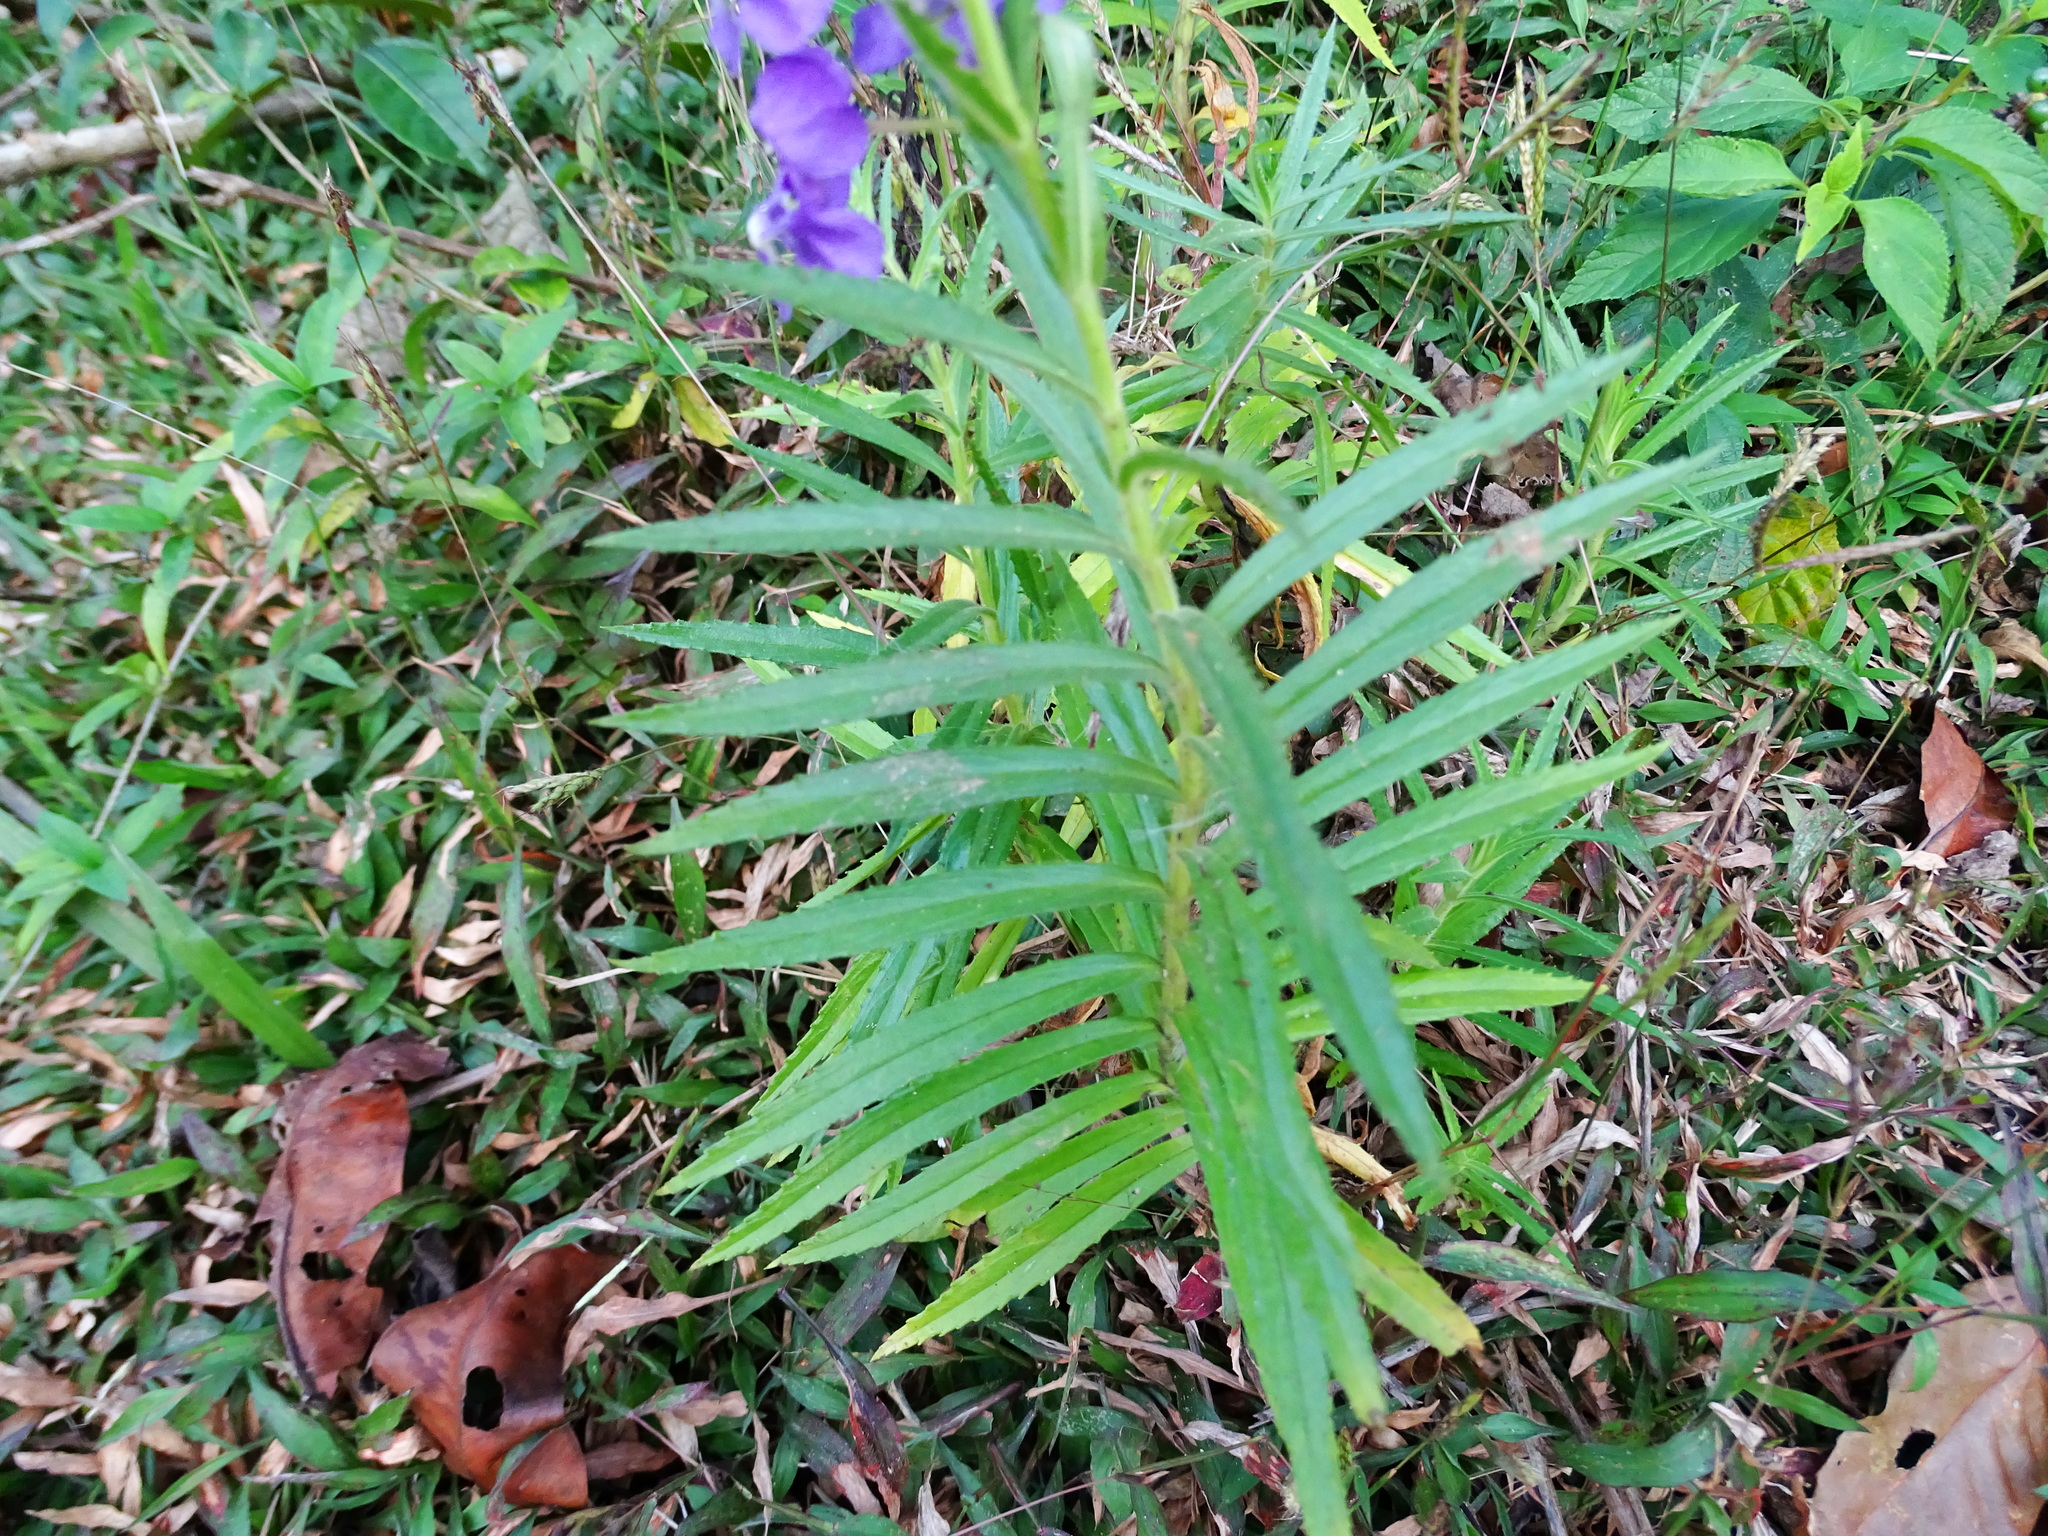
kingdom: Plantae
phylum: Tracheophyta
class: Magnoliopsida
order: Lamiales
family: Plantaginaceae
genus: Angelonia
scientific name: Angelonia angustifolia
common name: Narrowleaf angelon
